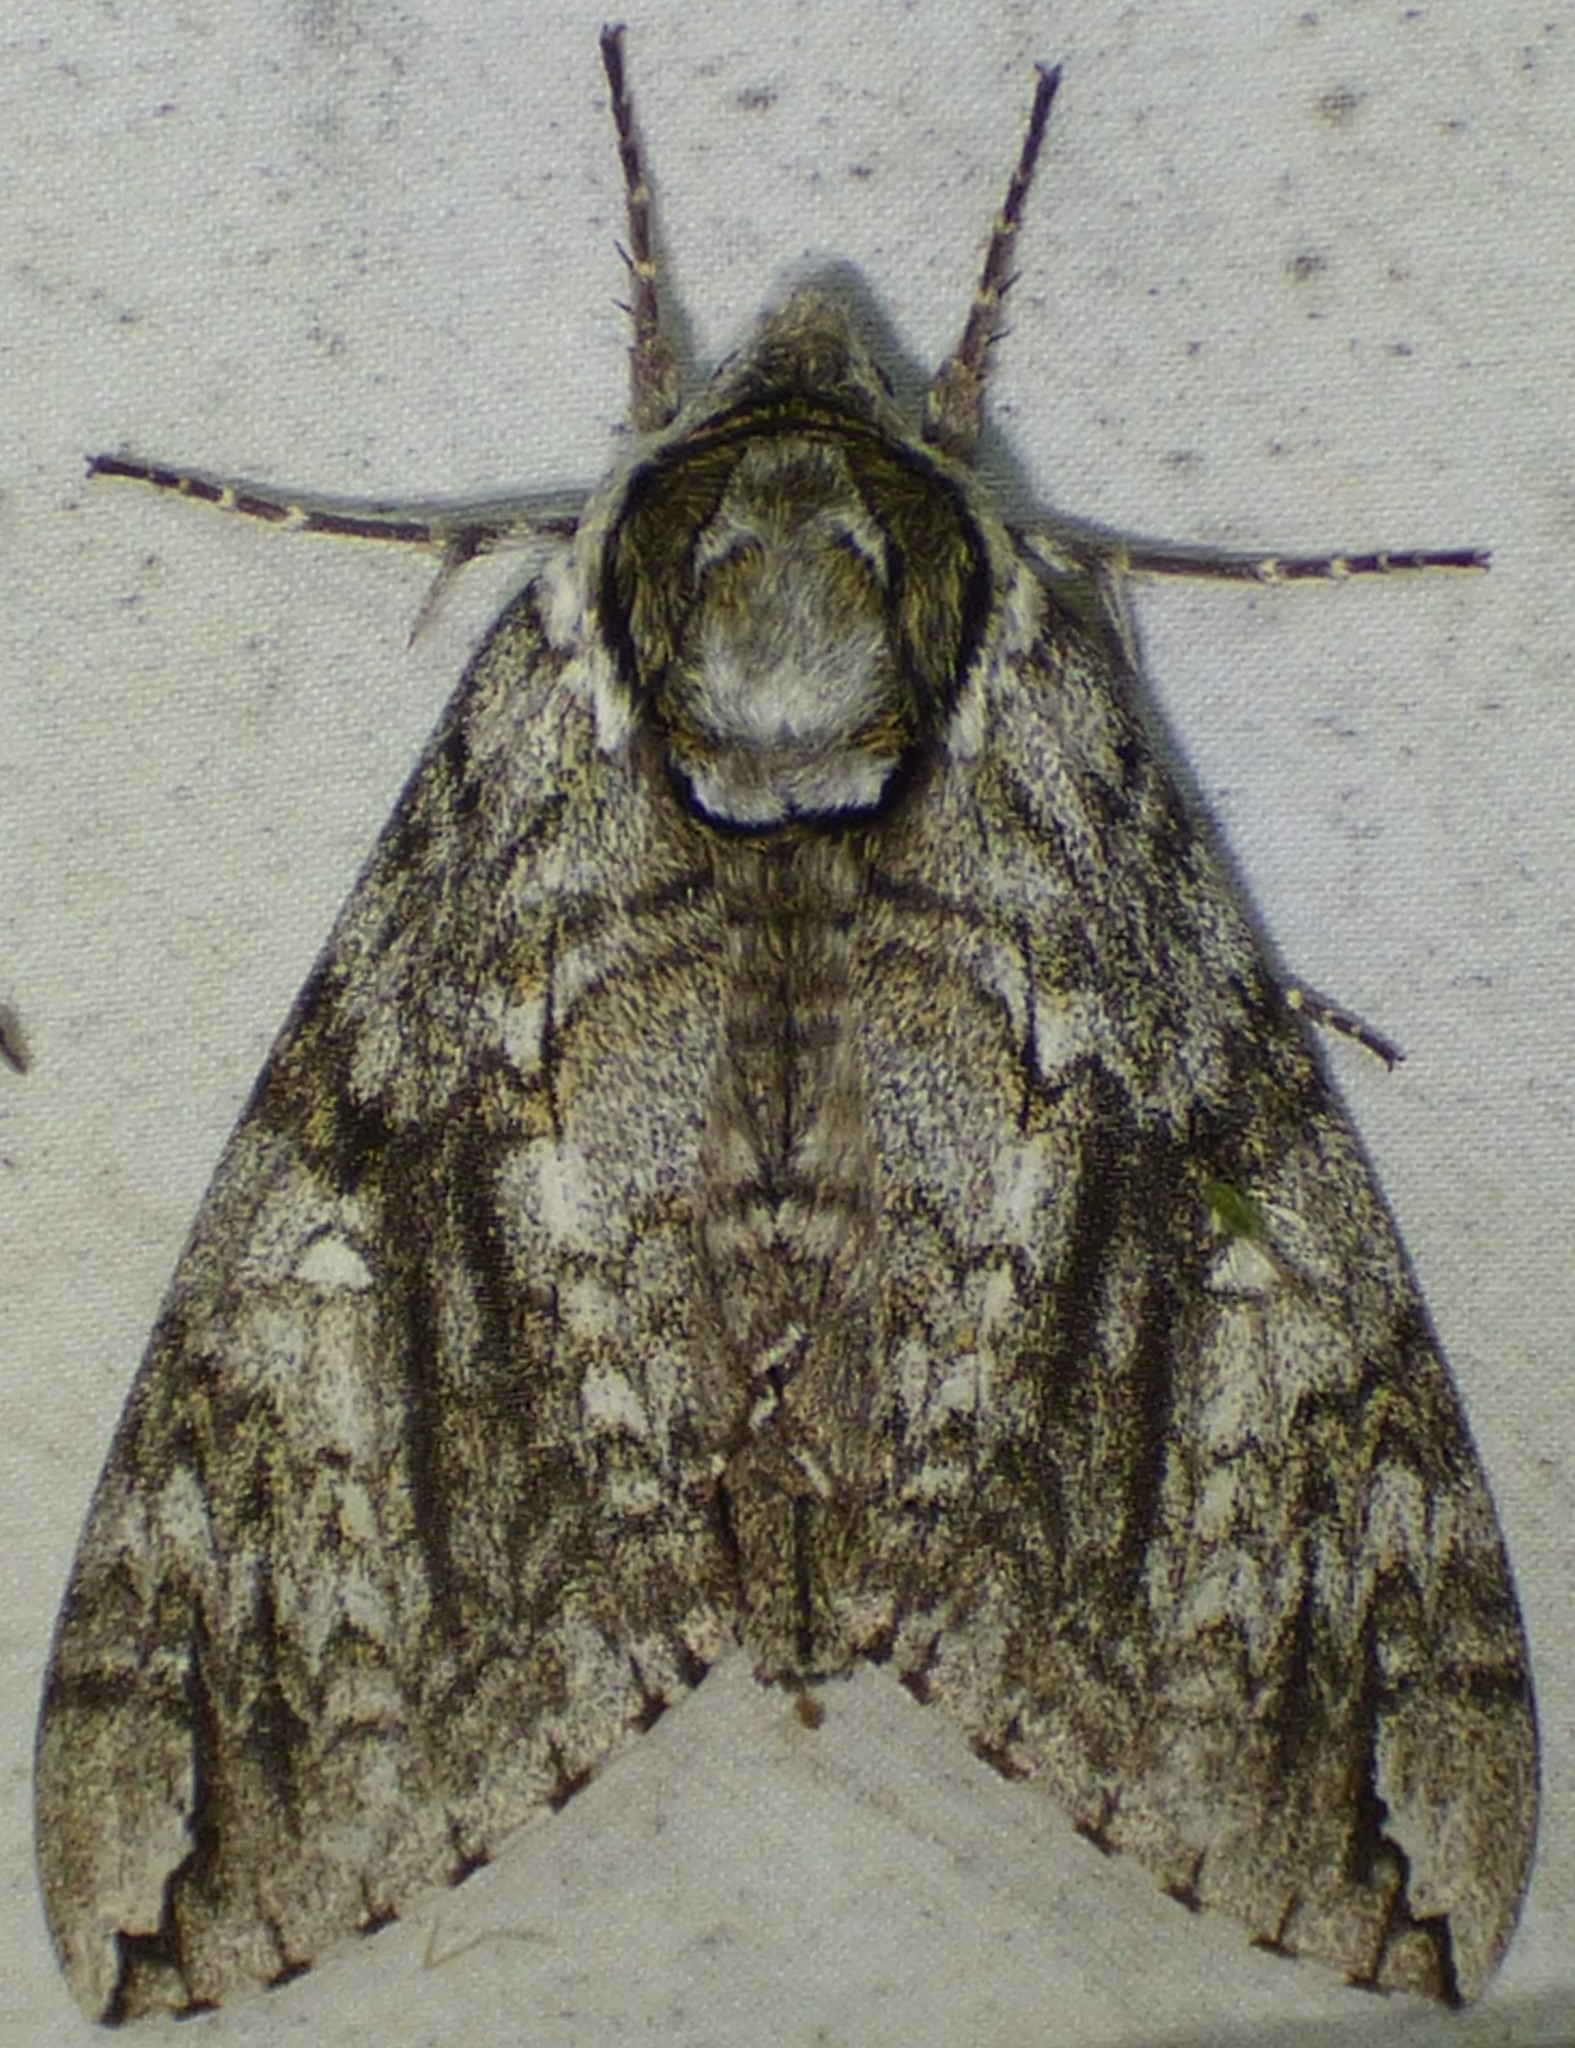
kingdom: Animalia
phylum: Arthropoda
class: Insecta
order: Lepidoptera
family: Sphingidae
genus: Ceratomia
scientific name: Ceratomia undulosa
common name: Waved sphinx
